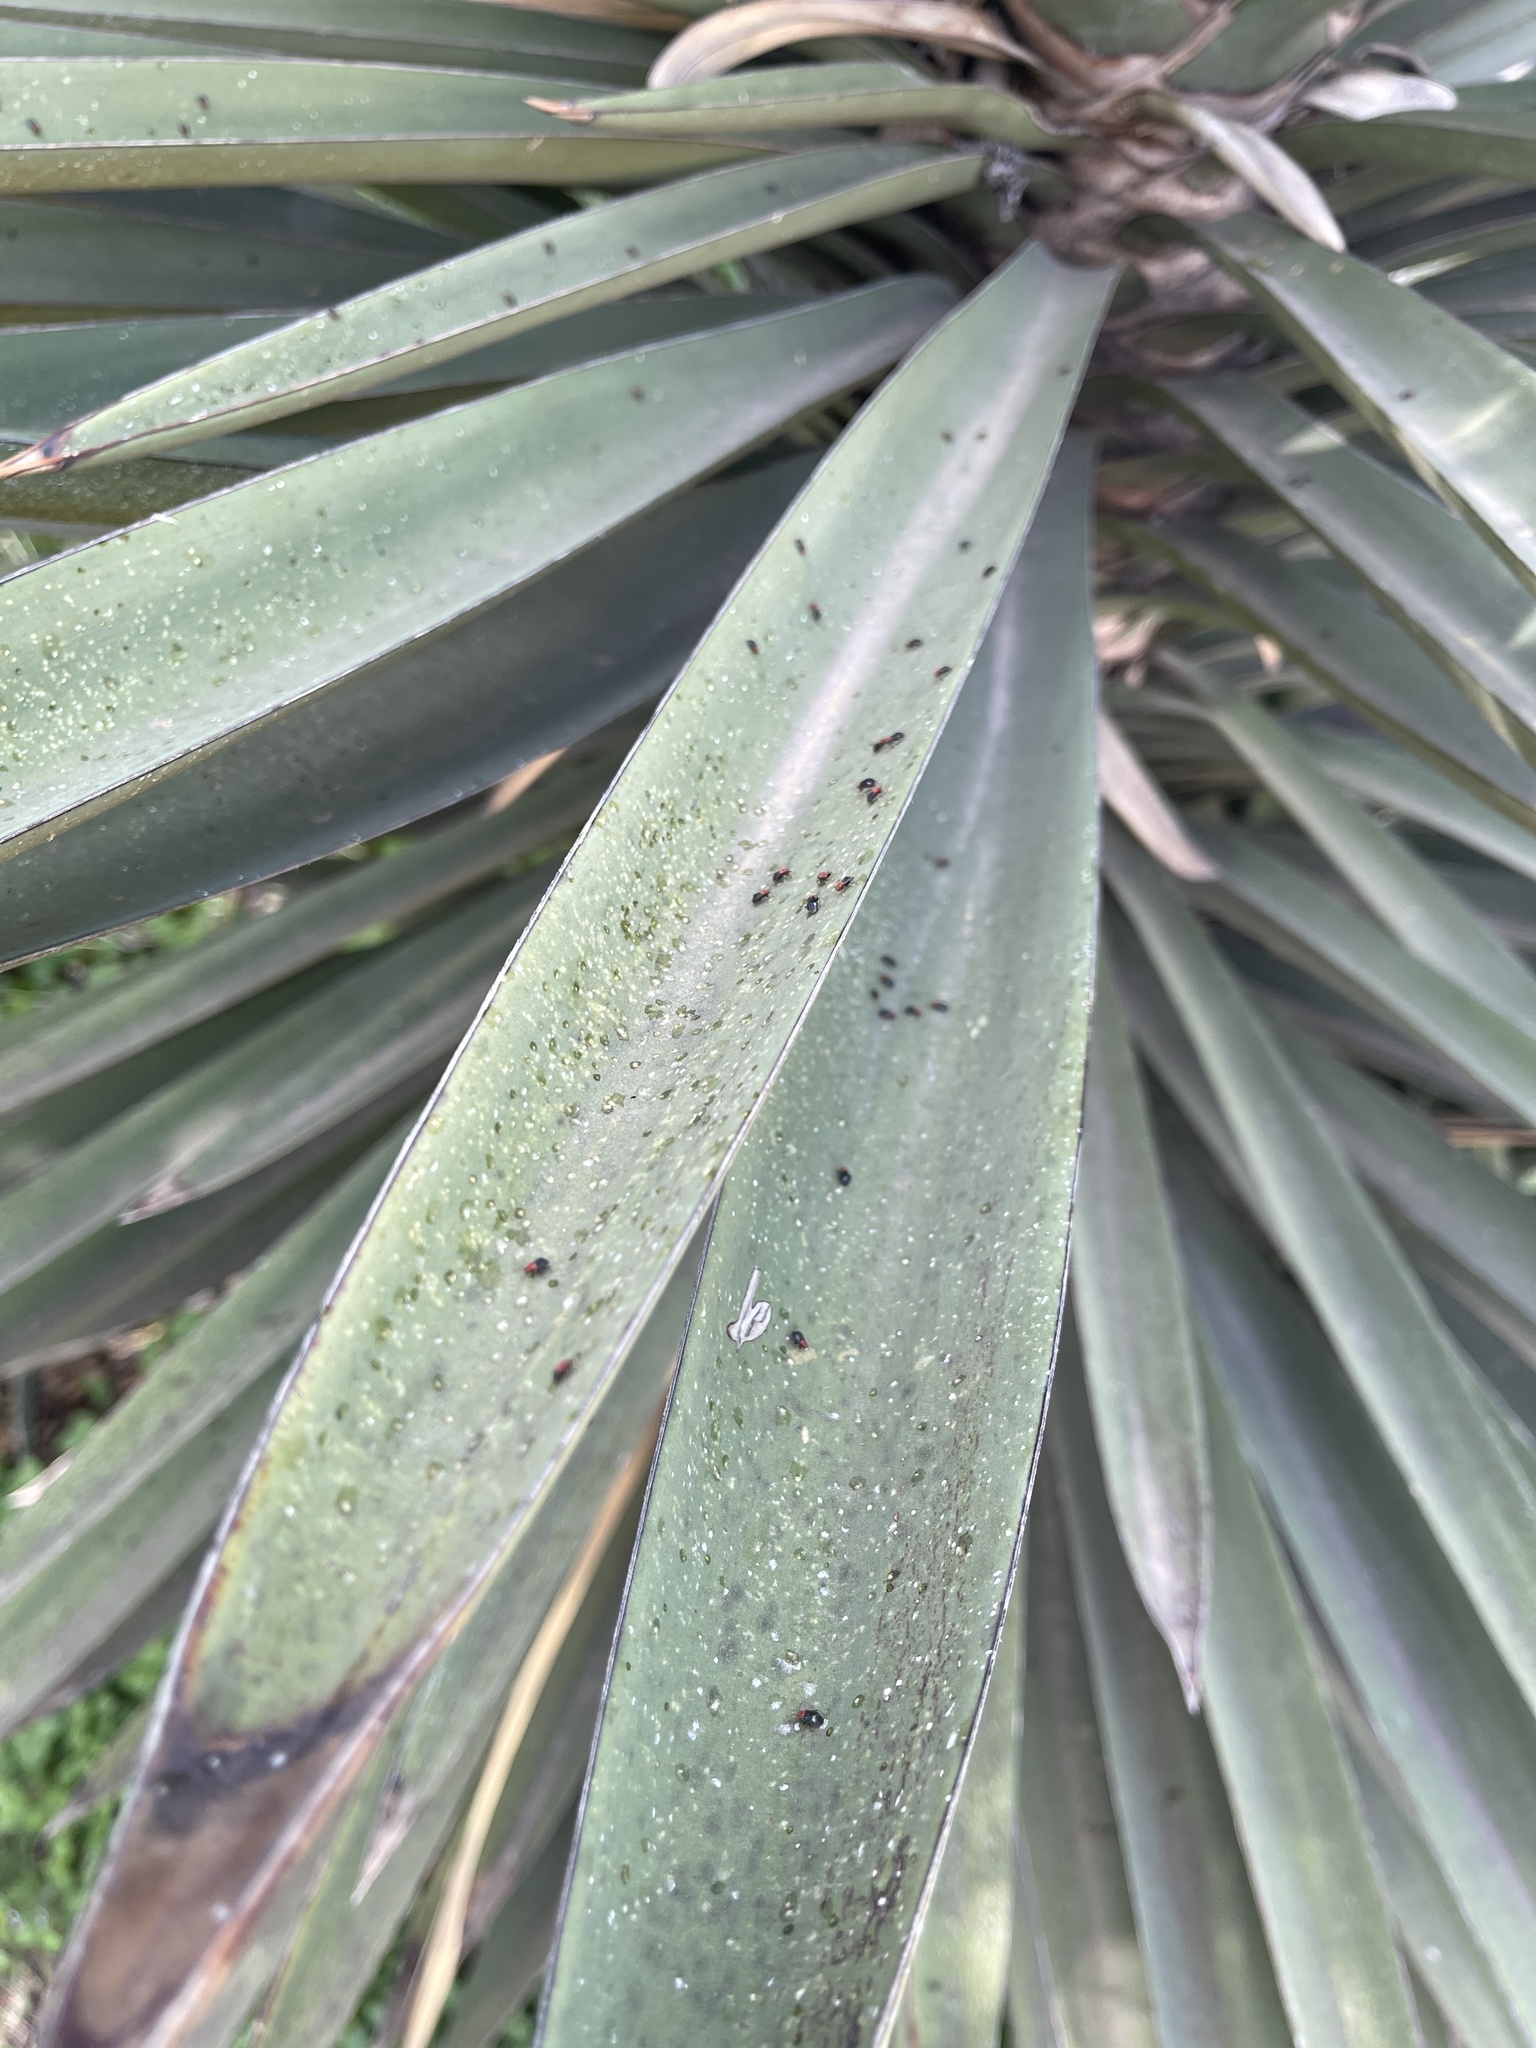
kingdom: Animalia
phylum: Arthropoda
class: Insecta
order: Hemiptera
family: Miridae
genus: Halticotoma
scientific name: Halticotoma valida
